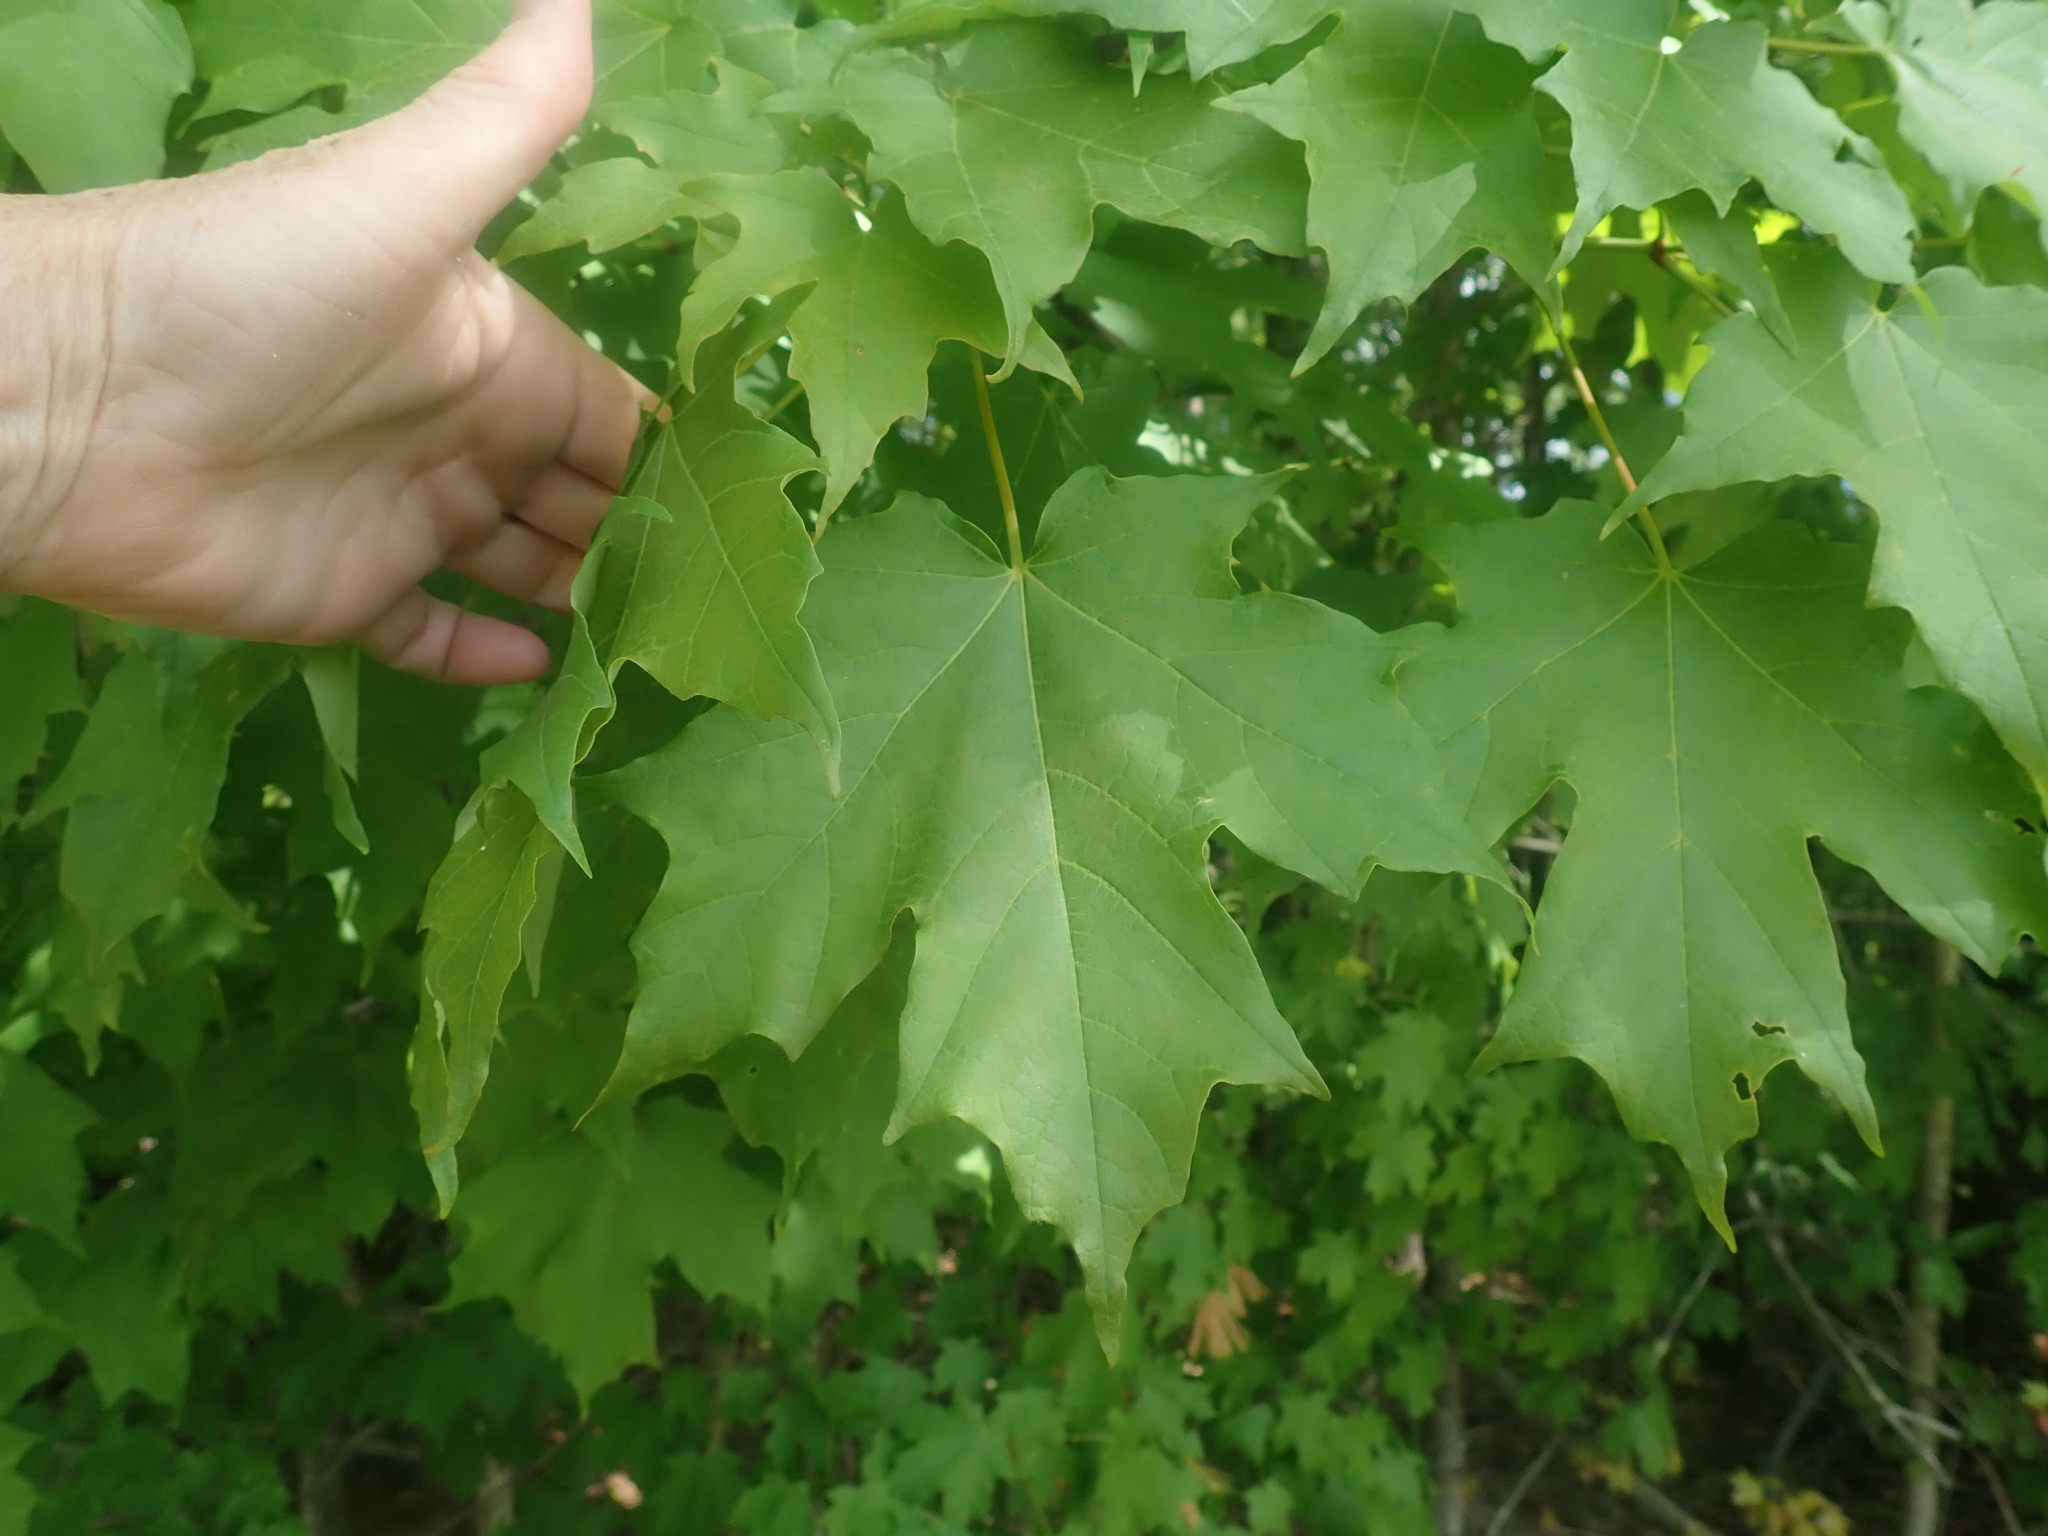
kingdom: Plantae
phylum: Tracheophyta
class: Magnoliopsida
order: Sapindales
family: Sapindaceae
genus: Acer
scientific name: Acer saccharum
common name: Sugar maple
